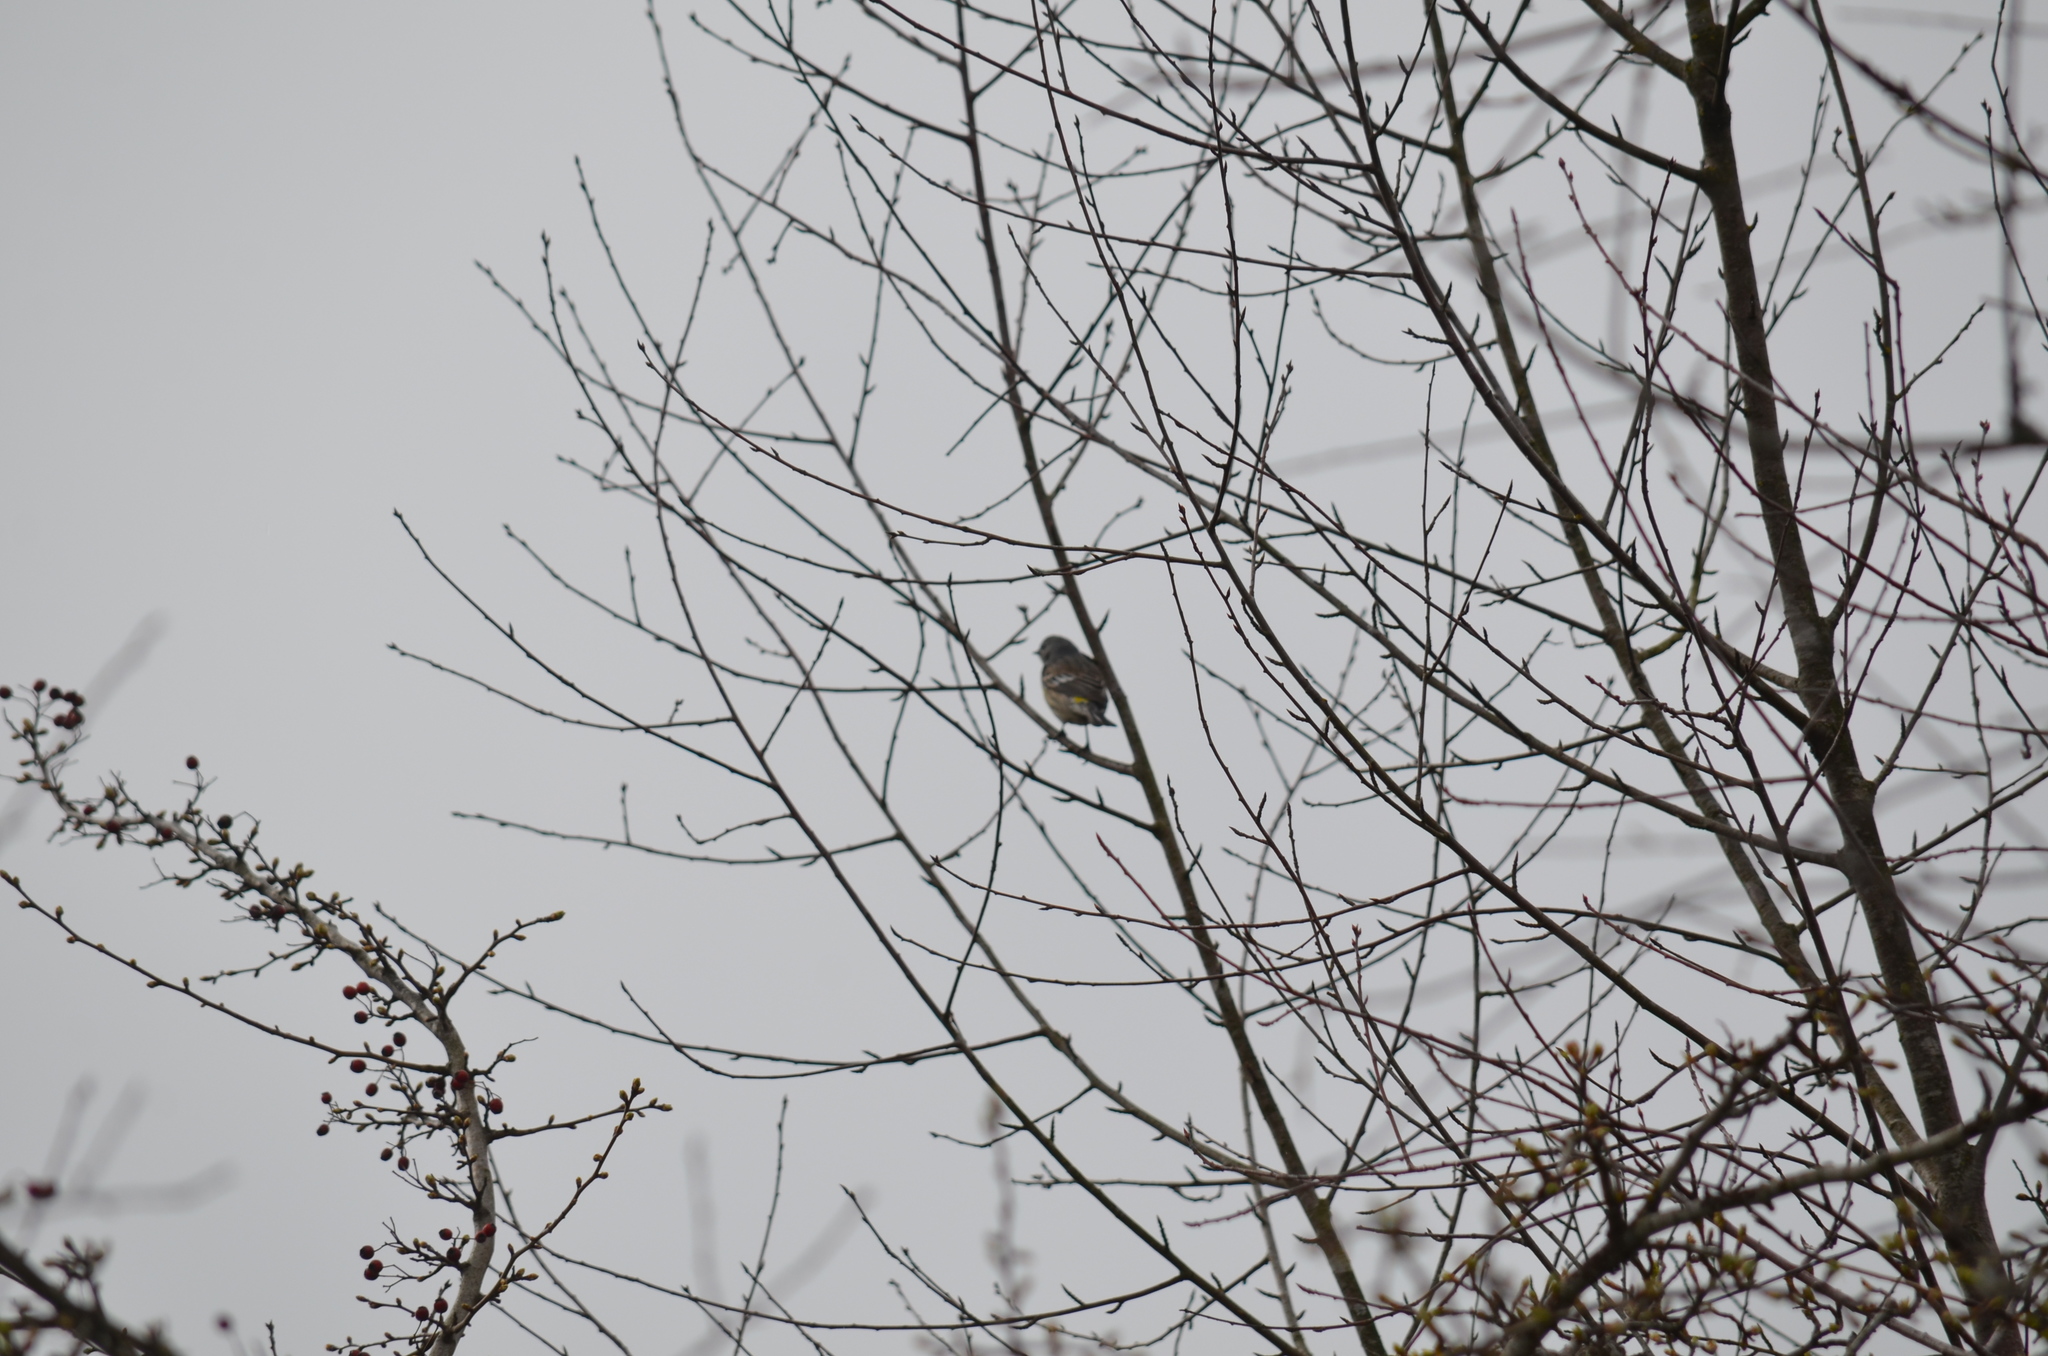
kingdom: Animalia
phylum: Chordata
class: Aves
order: Passeriformes
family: Parulidae
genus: Setophaga
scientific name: Setophaga coronata
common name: Myrtle warbler
